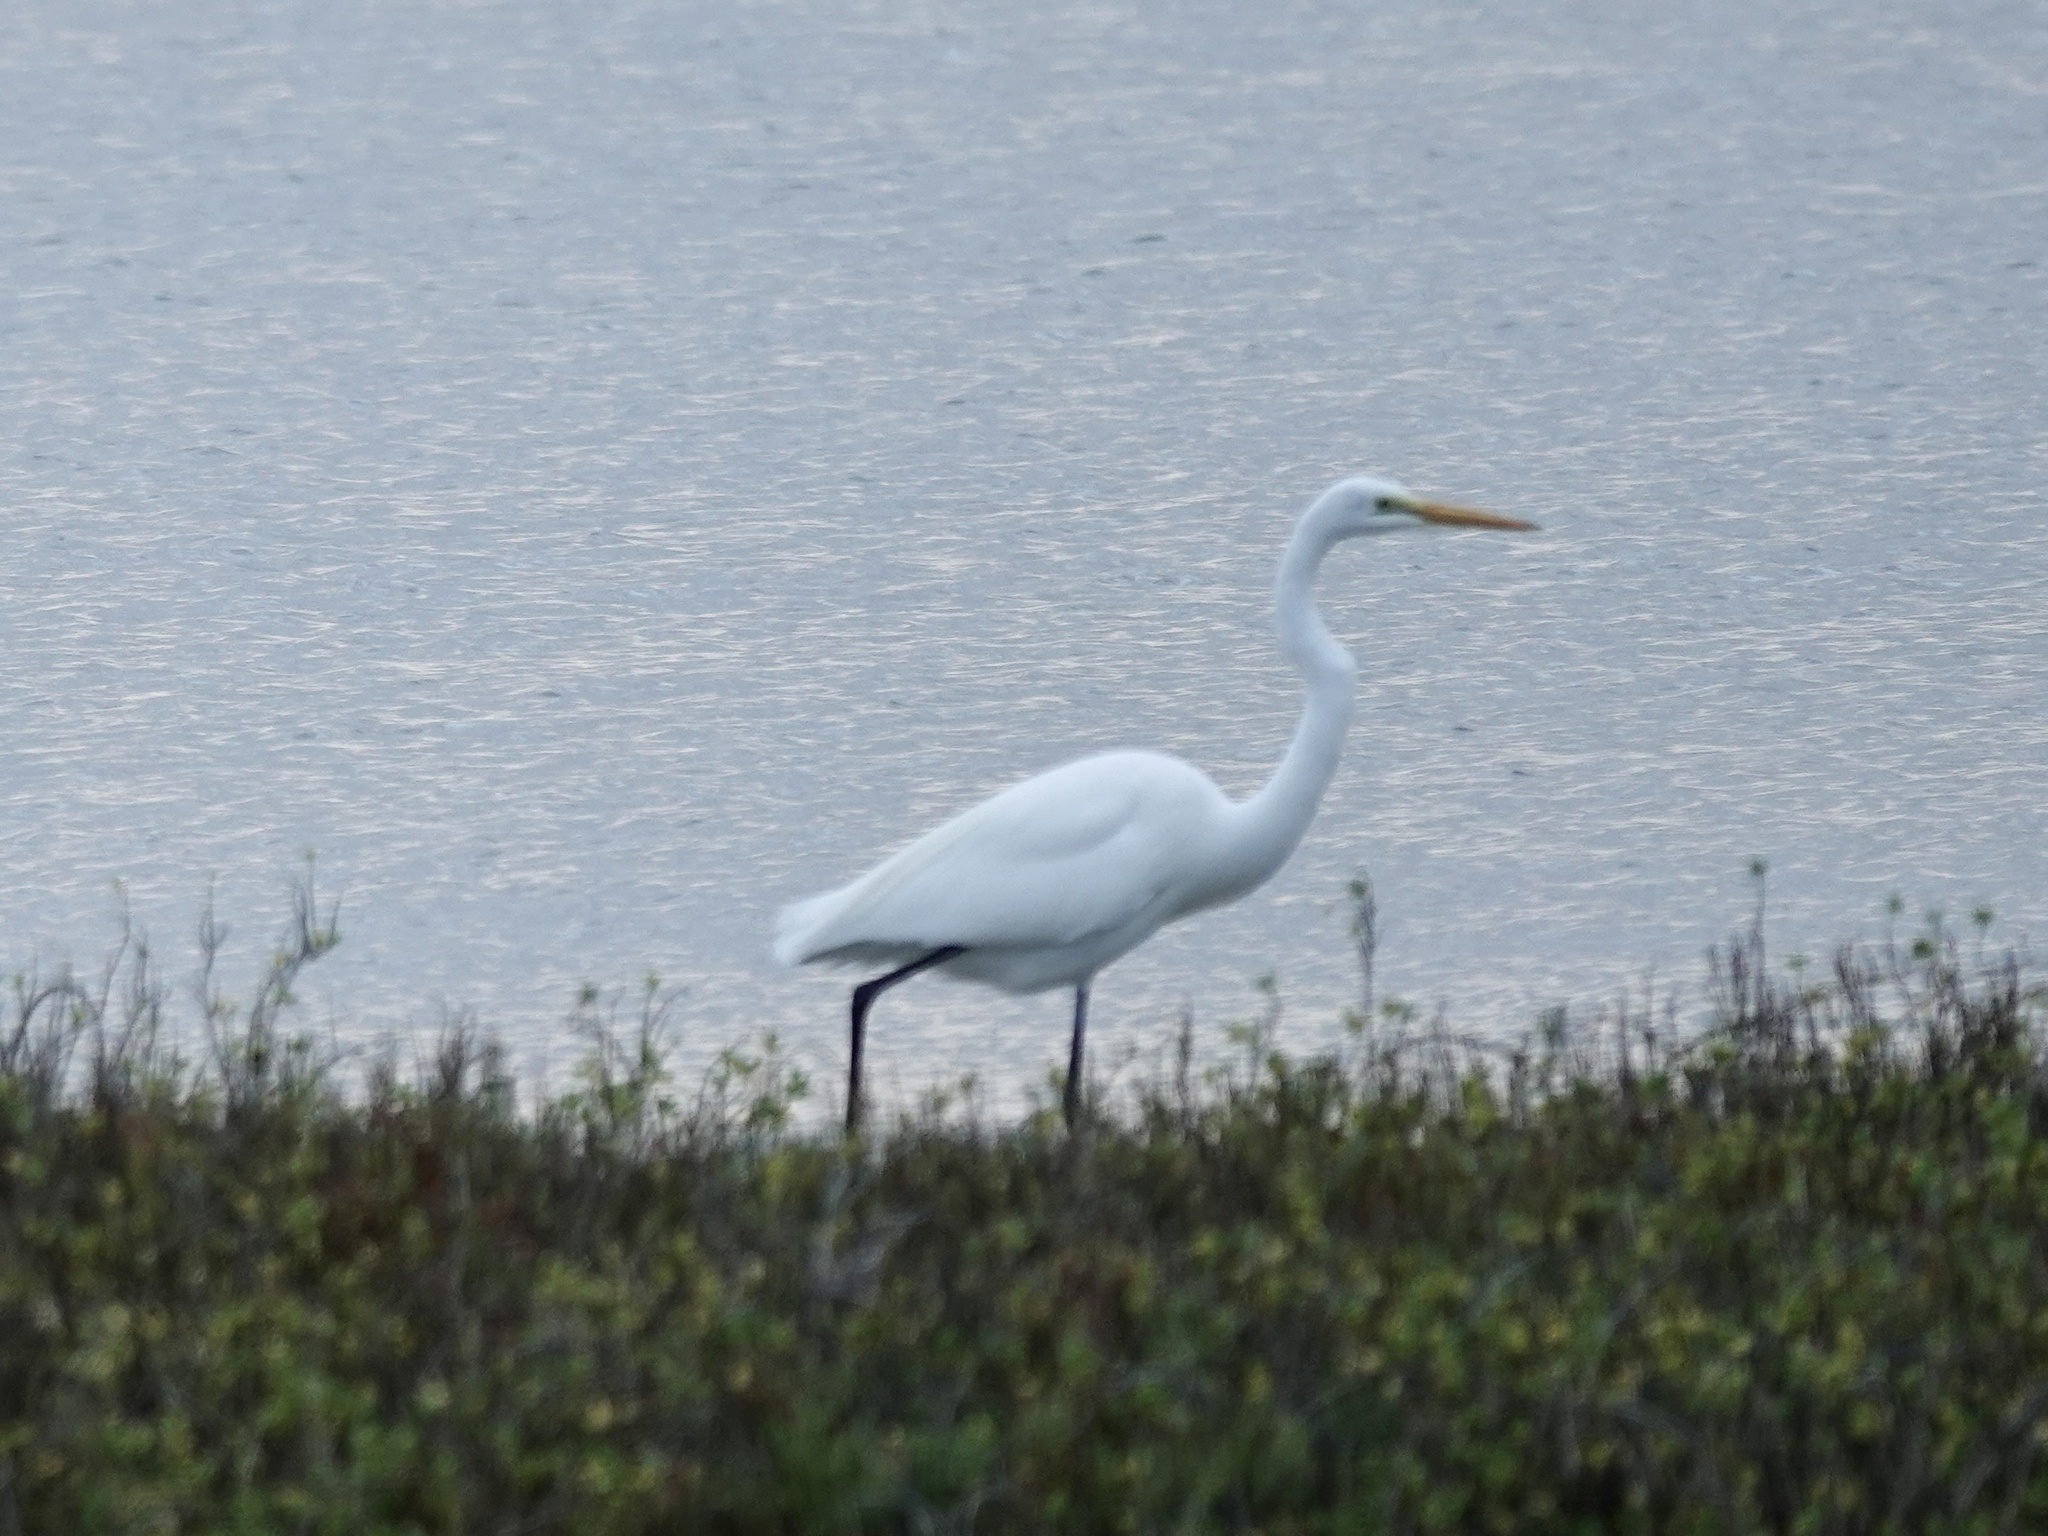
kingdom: Animalia
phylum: Chordata
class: Aves
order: Pelecaniformes
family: Ardeidae
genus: Ardea
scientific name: Ardea alba
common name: Great egret
